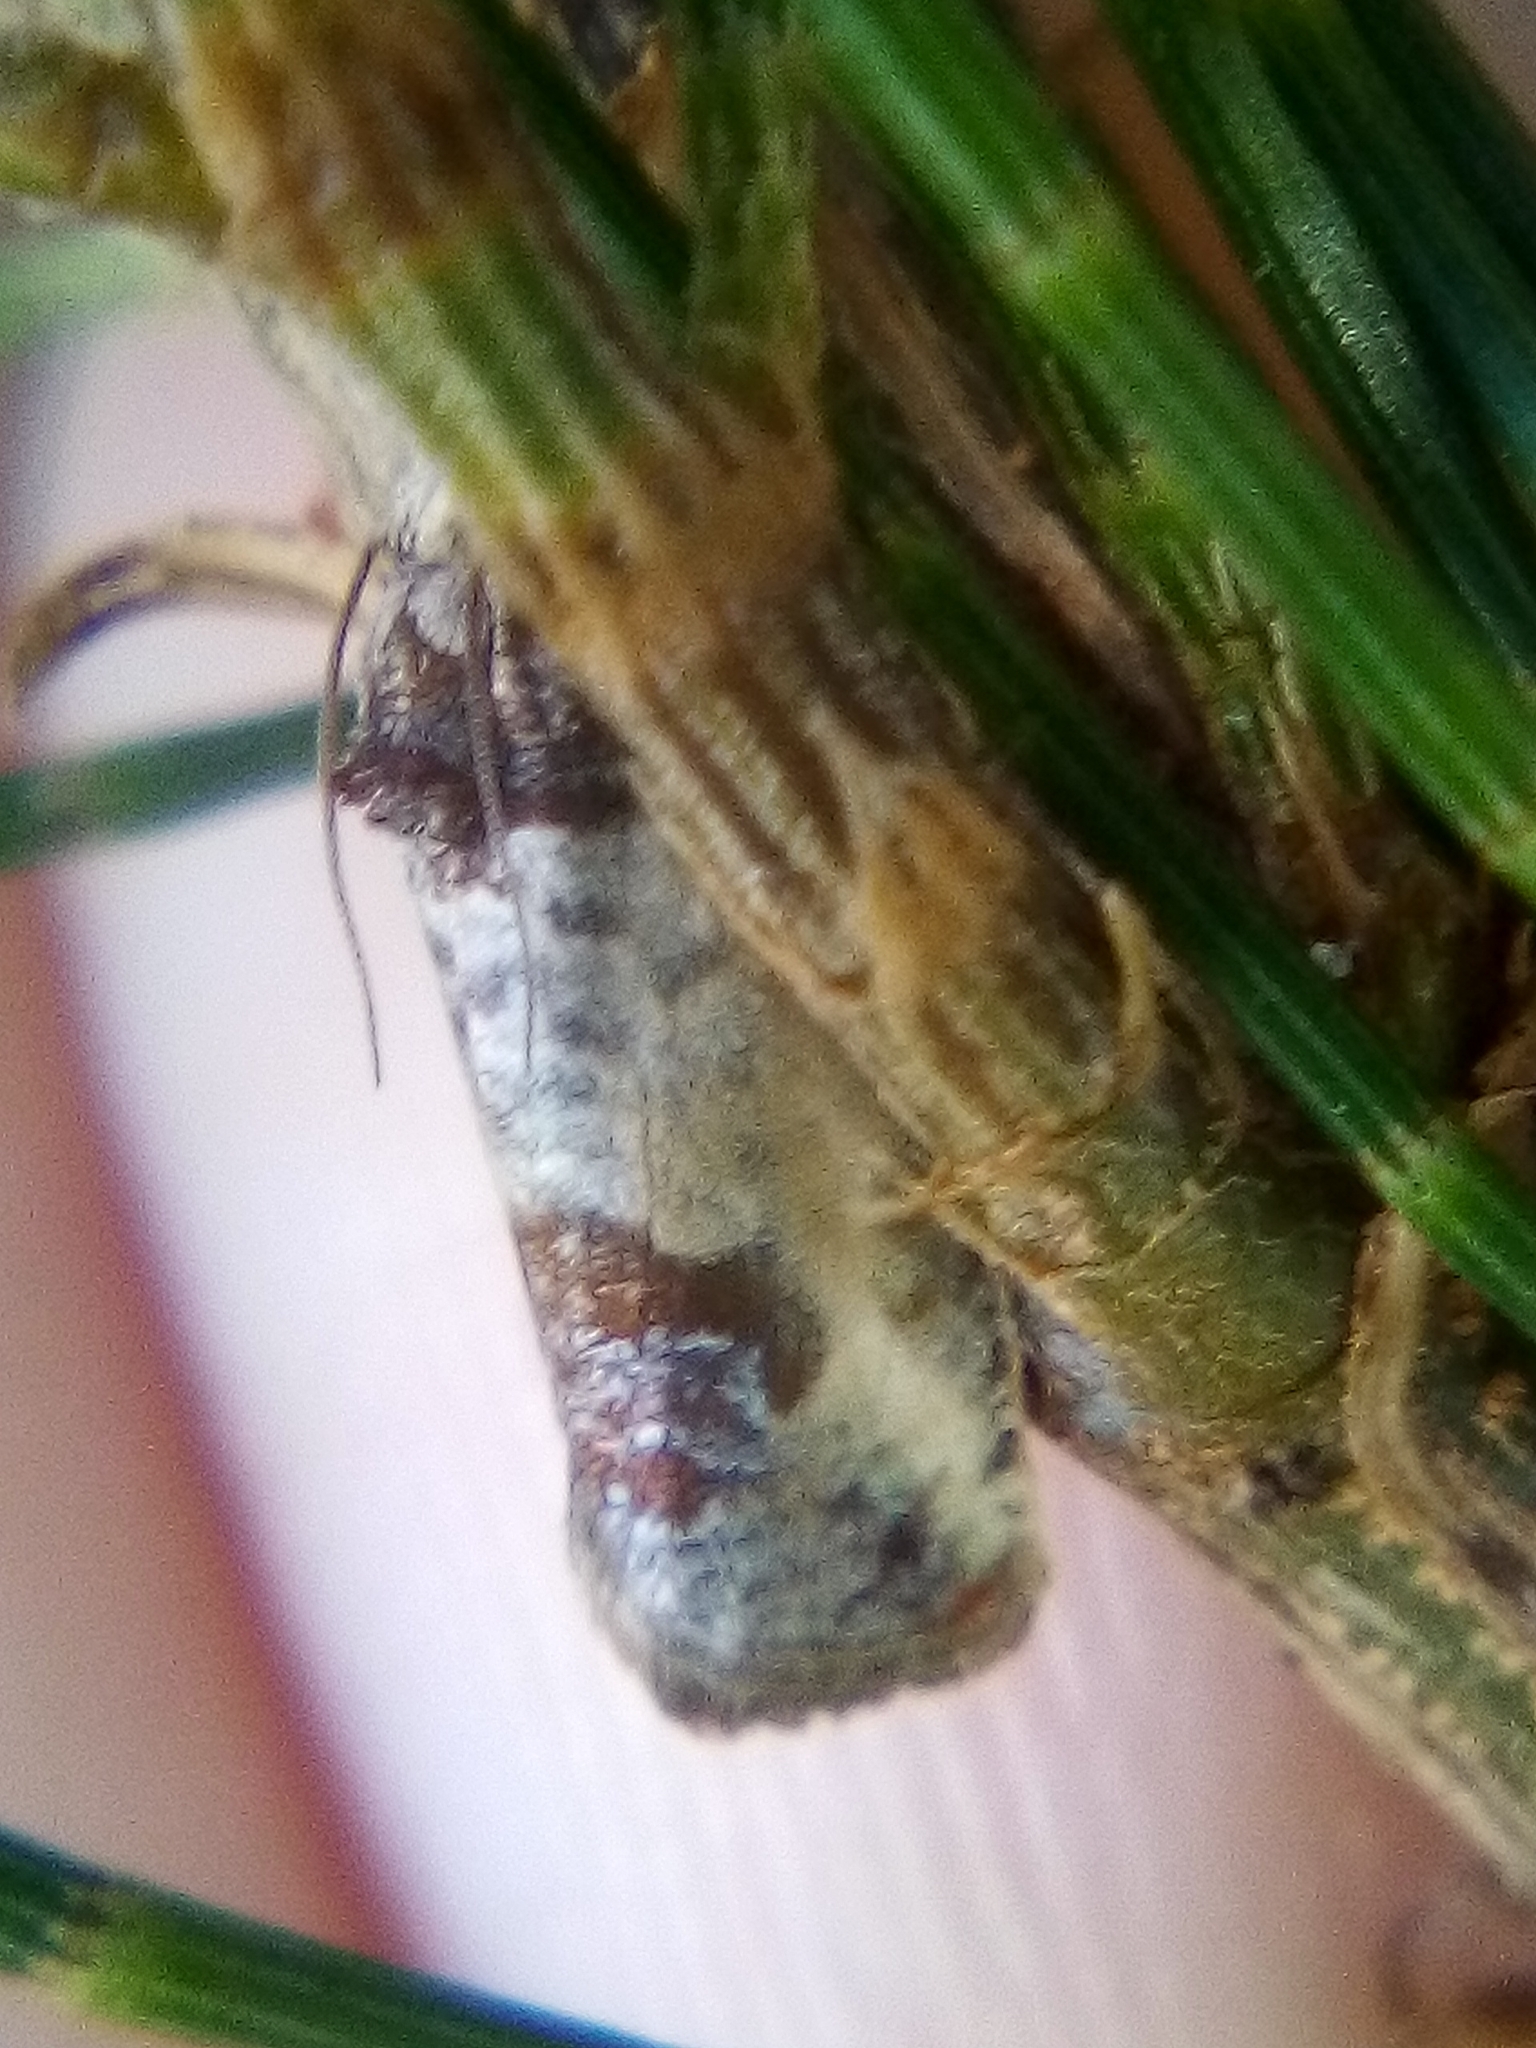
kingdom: Animalia
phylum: Arthropoda
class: Insecta
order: Lepidoptera
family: Tortricidae
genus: Argyroploce
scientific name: Argyroploce chlorosaris
